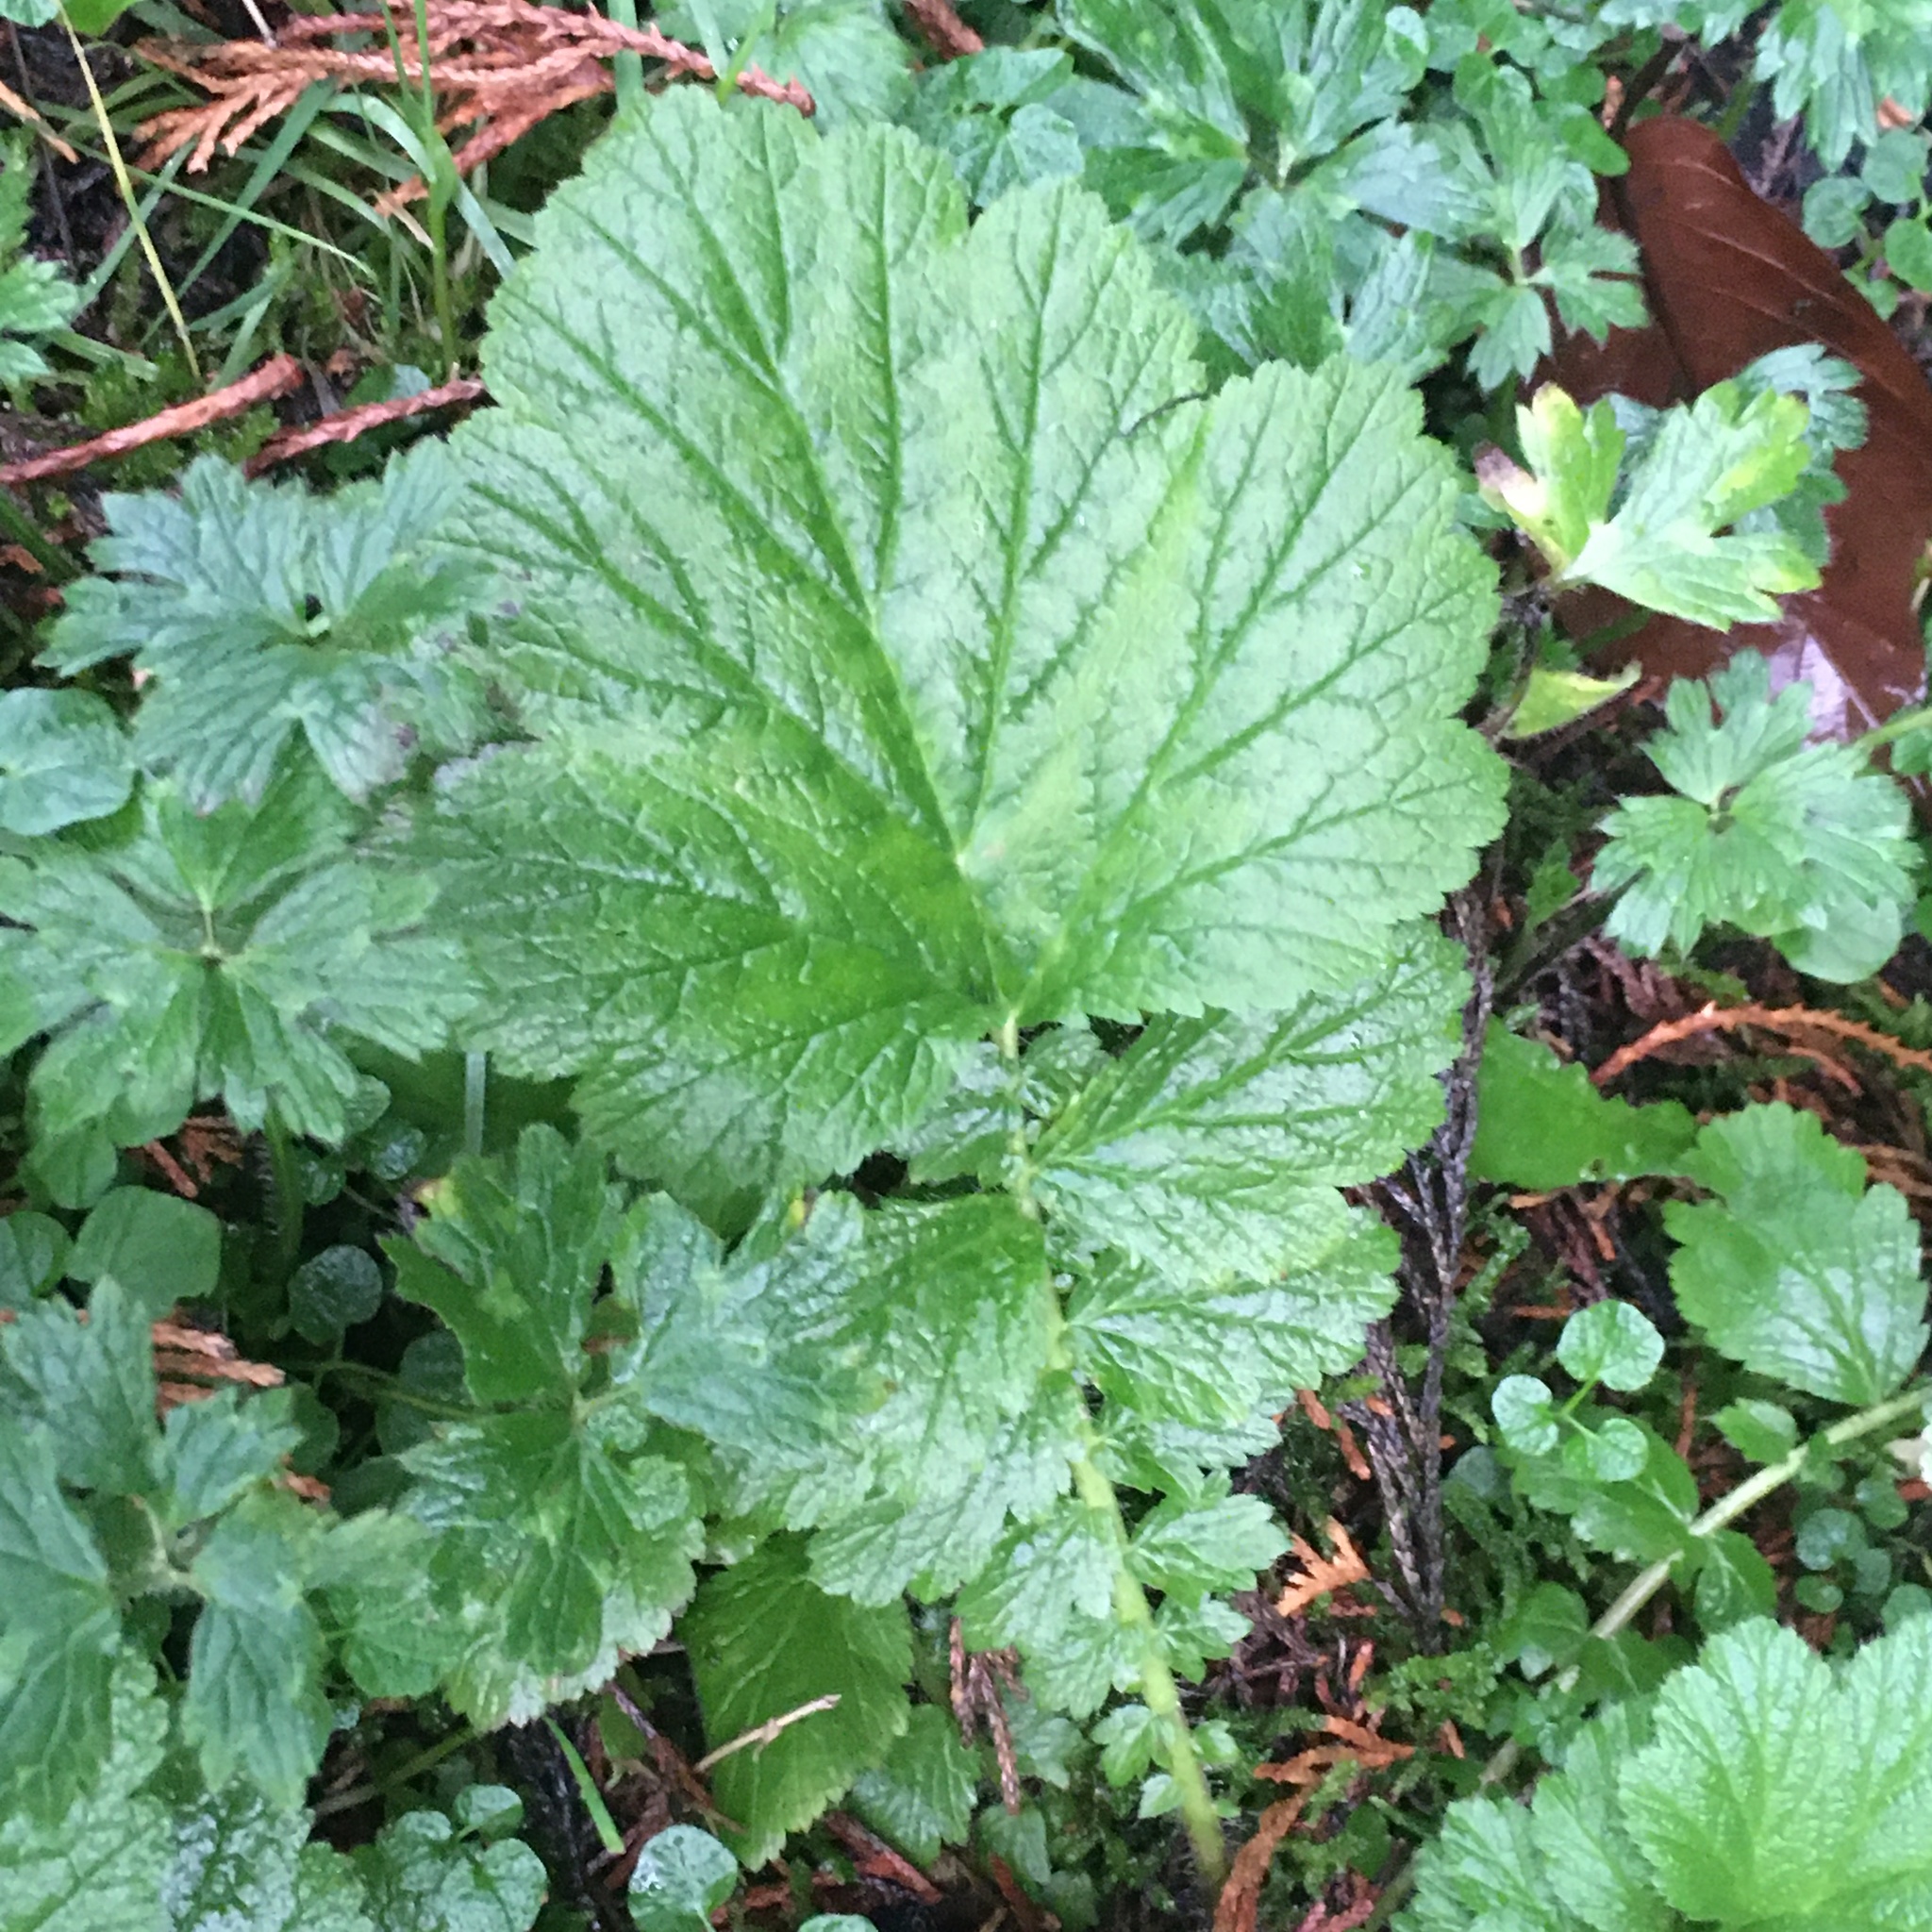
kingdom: Plantae
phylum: Tracheophyta
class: Magnoliopsida
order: Rosales
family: Rosaceae
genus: Geum
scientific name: Geum macrophyllum
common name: Large-leaved avens
